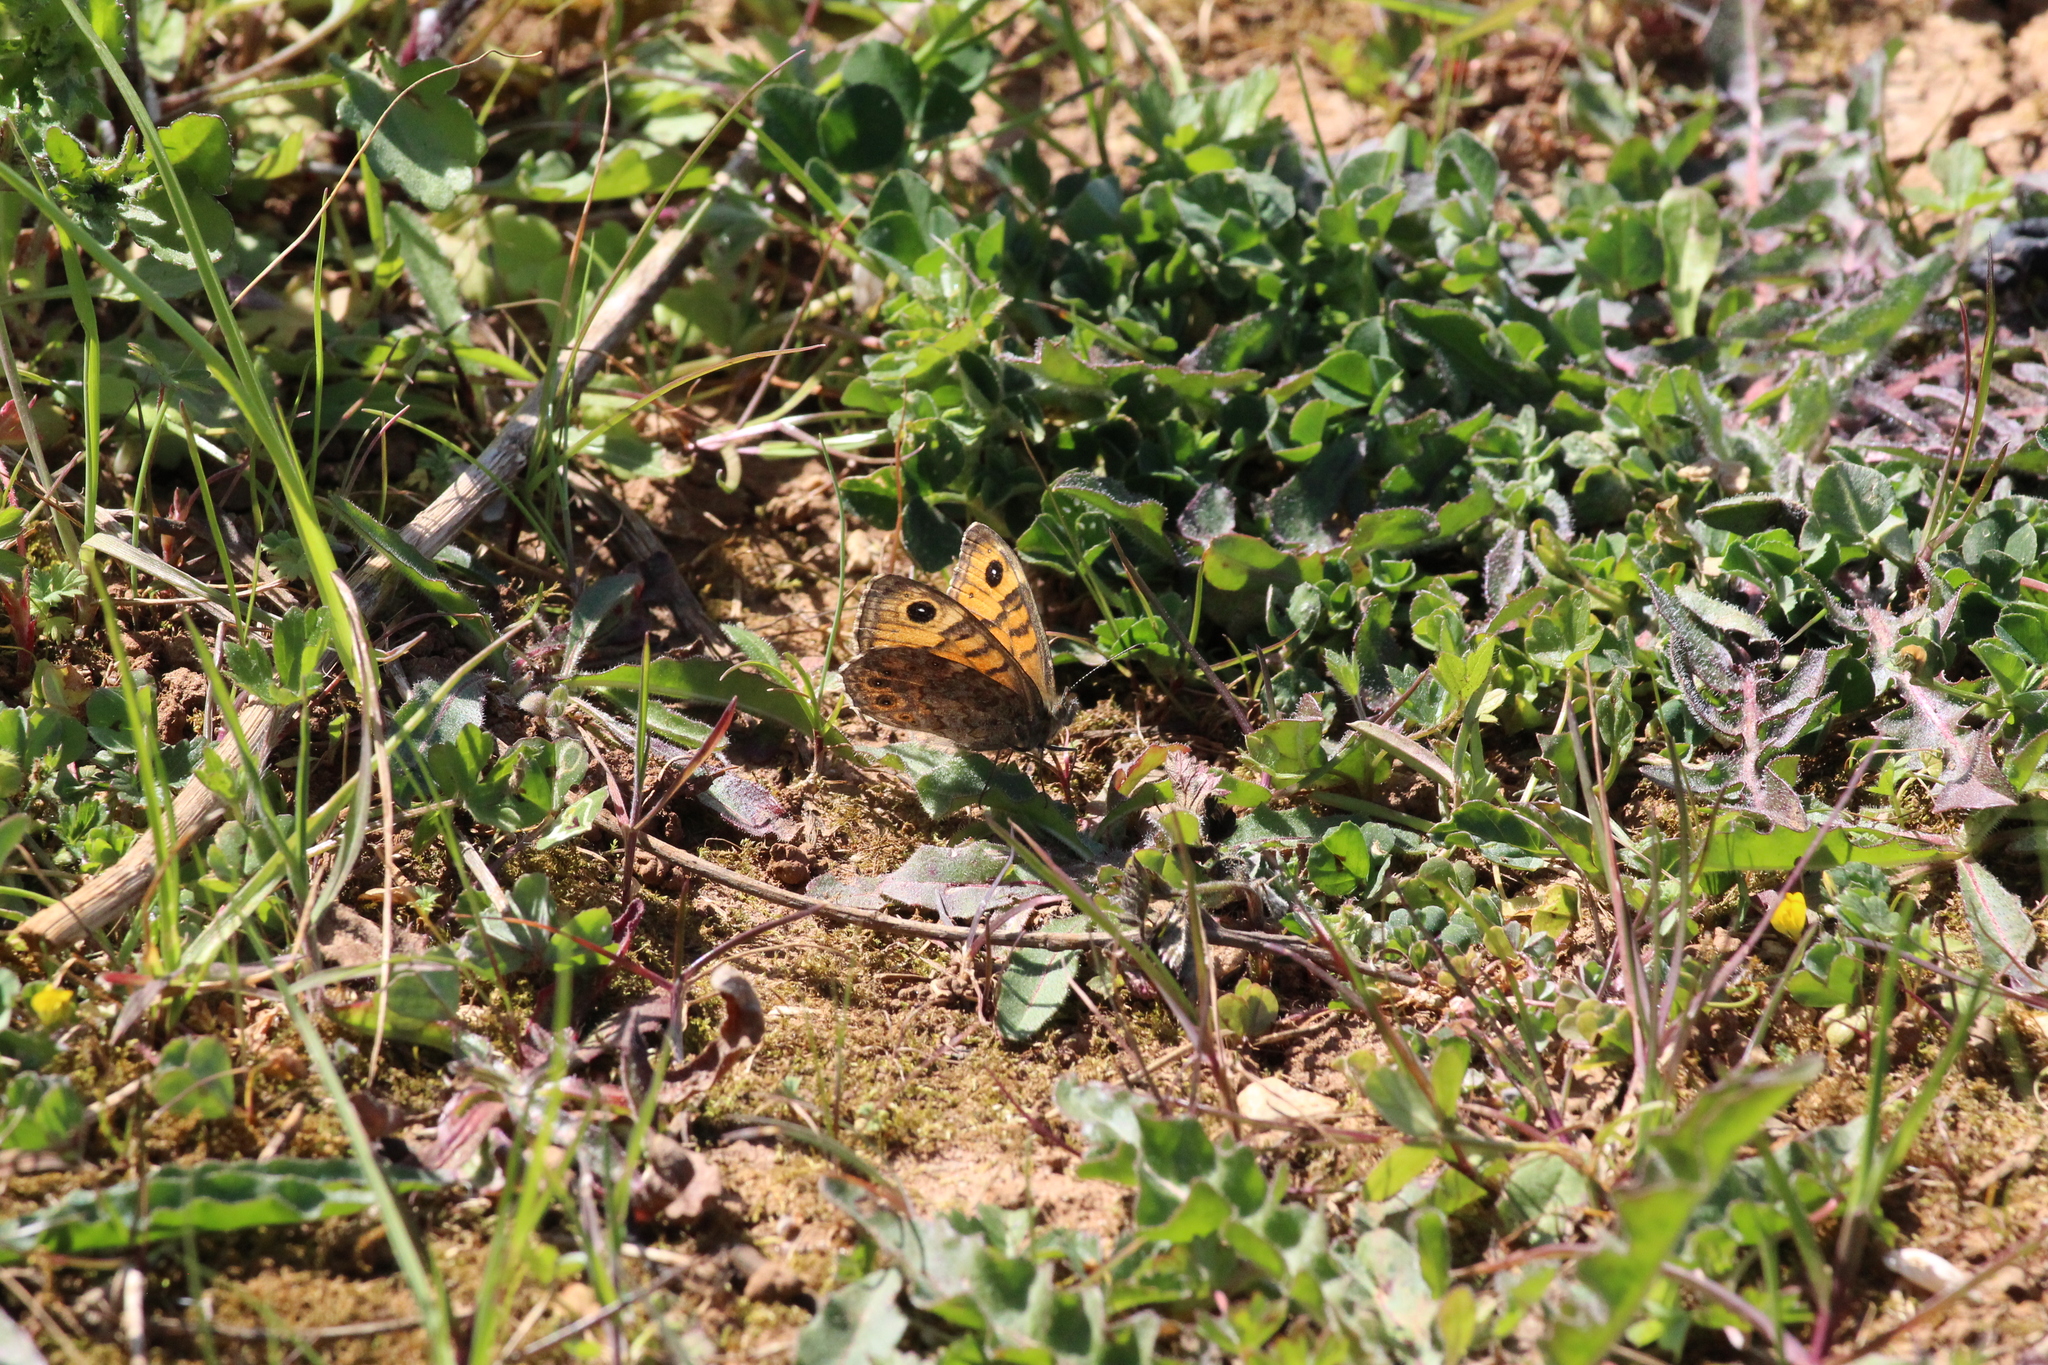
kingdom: Animalia
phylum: Arthropoda
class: Insecta
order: Lepidoptera
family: Nymphalidae
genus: Pararge
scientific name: Pararge Lasiommata megera
